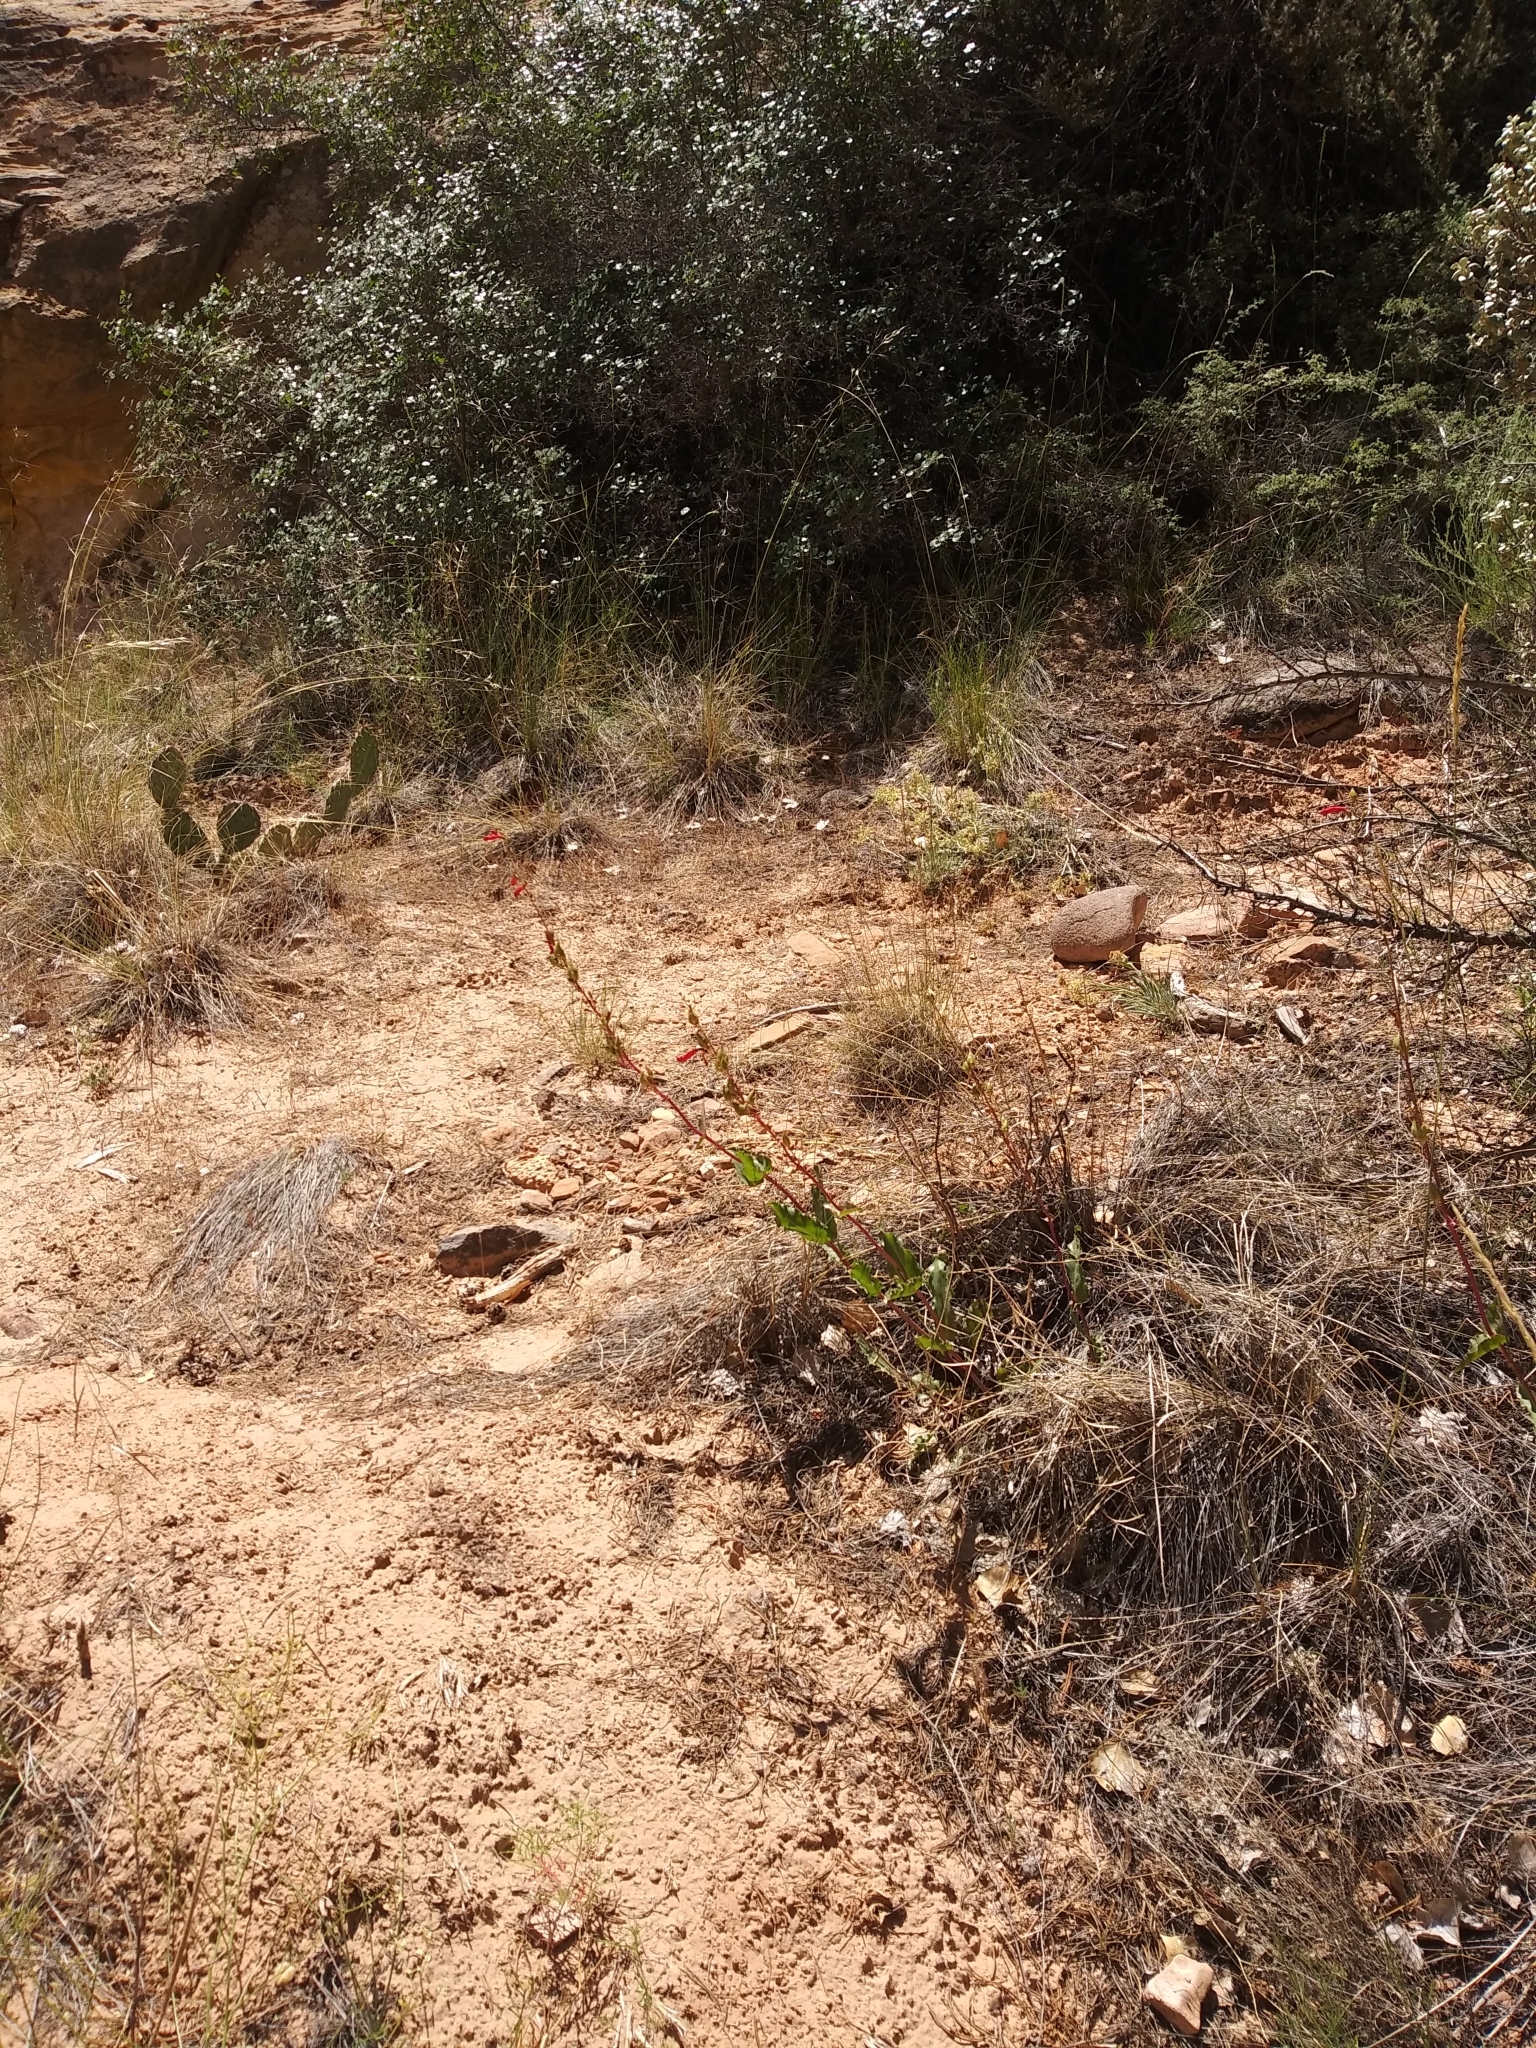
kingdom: Plantae
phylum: Tracheophyta
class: Magnoliopsida
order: Lamiales
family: Plantaginaceae
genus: Penstemon
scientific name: Penstemon utahensis
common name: Utah penstemon
